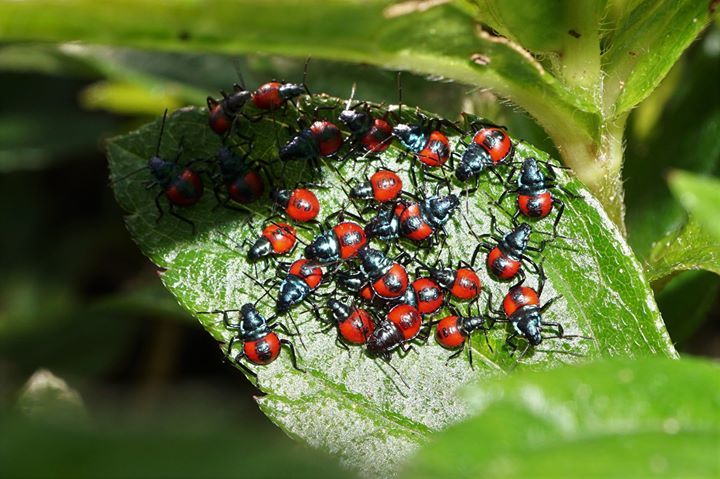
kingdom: Animalia
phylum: Arthropoda
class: Insecta
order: Hemiptera
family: Pentatomidae
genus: Euthyrhynchus
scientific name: Euthyrhynchus floridanus
